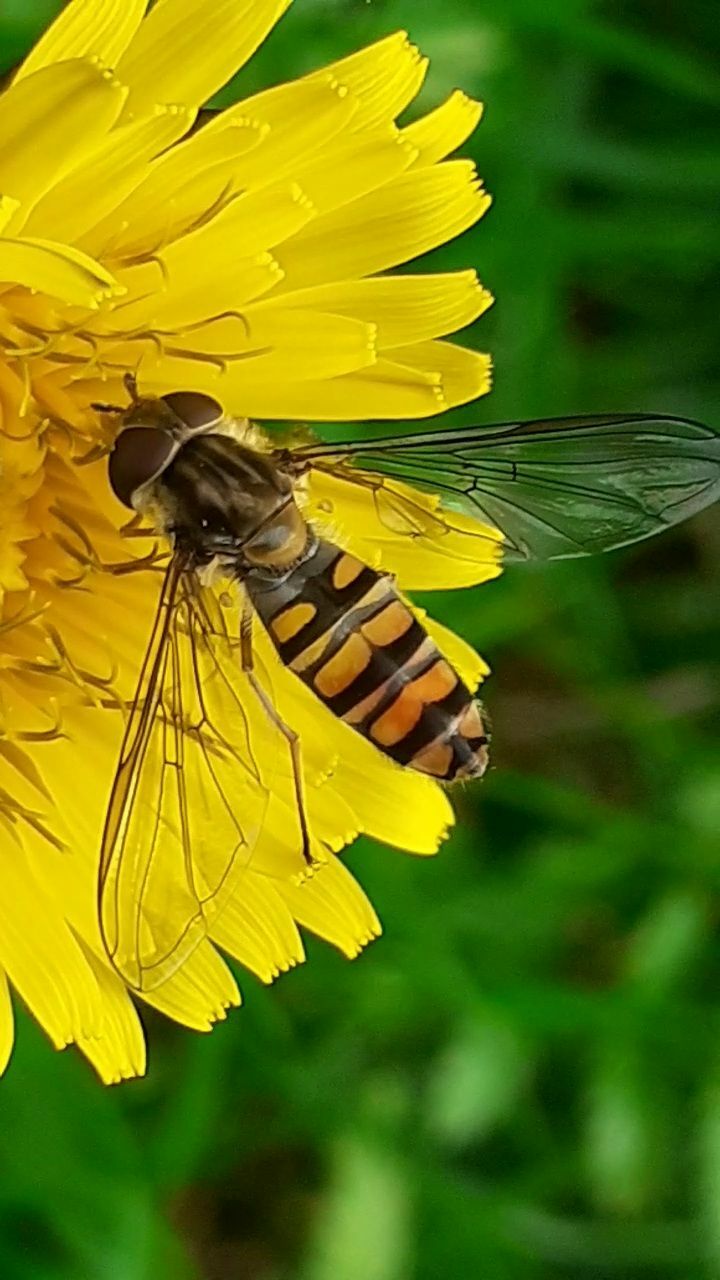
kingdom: Animalia
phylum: Arthropoda
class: Insecta
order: Diptera
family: Syrphidae
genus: Episyrphus
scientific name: Episyrphus balteatus
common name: Marmalade hoverfly
